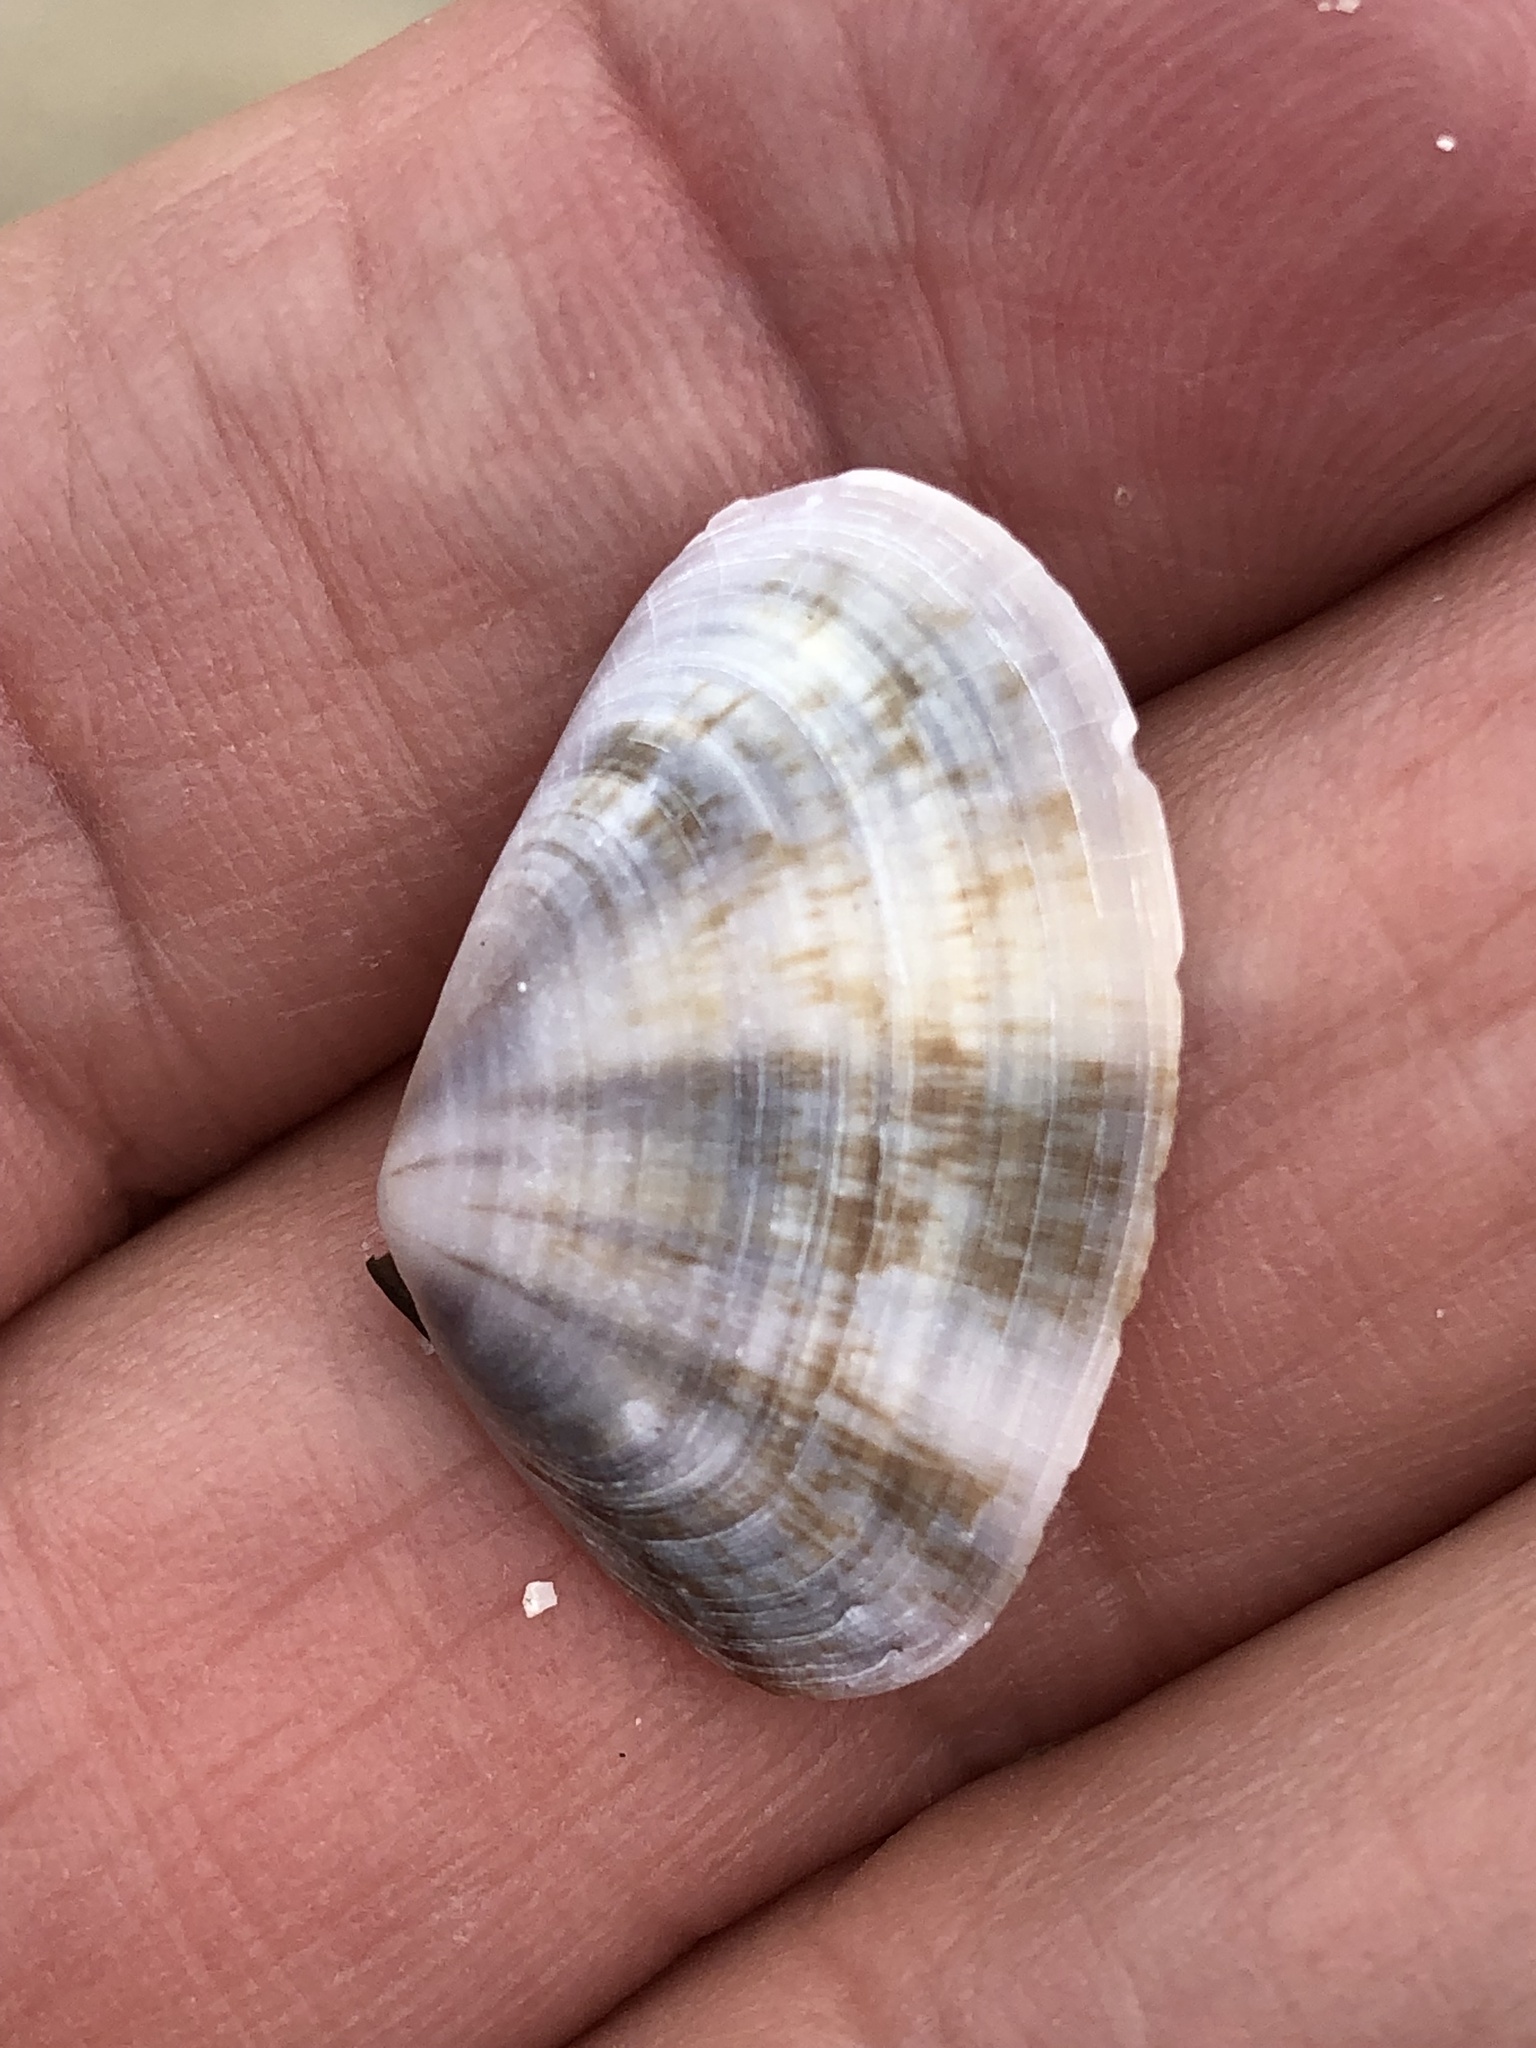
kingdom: Animalia
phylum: Mollusca
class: Bivalvia
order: Cardiida
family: Donacidae
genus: Donax
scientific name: Donax faba
